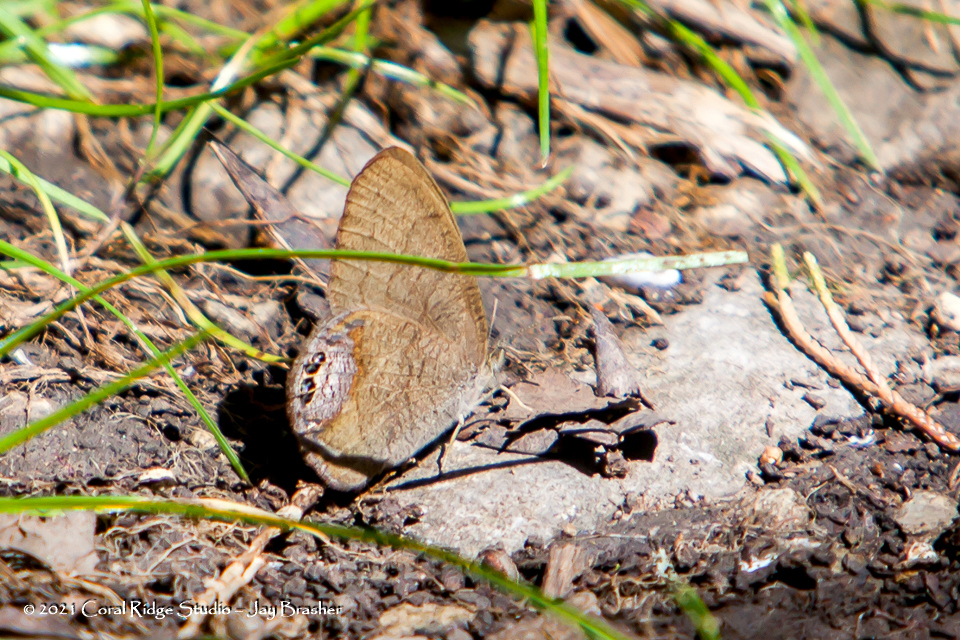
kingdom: Animalia
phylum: Arthropoda
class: Insecta
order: Lepidoptera
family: Nymphalidae
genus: Euptychia
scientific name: Euptychia cornelius
